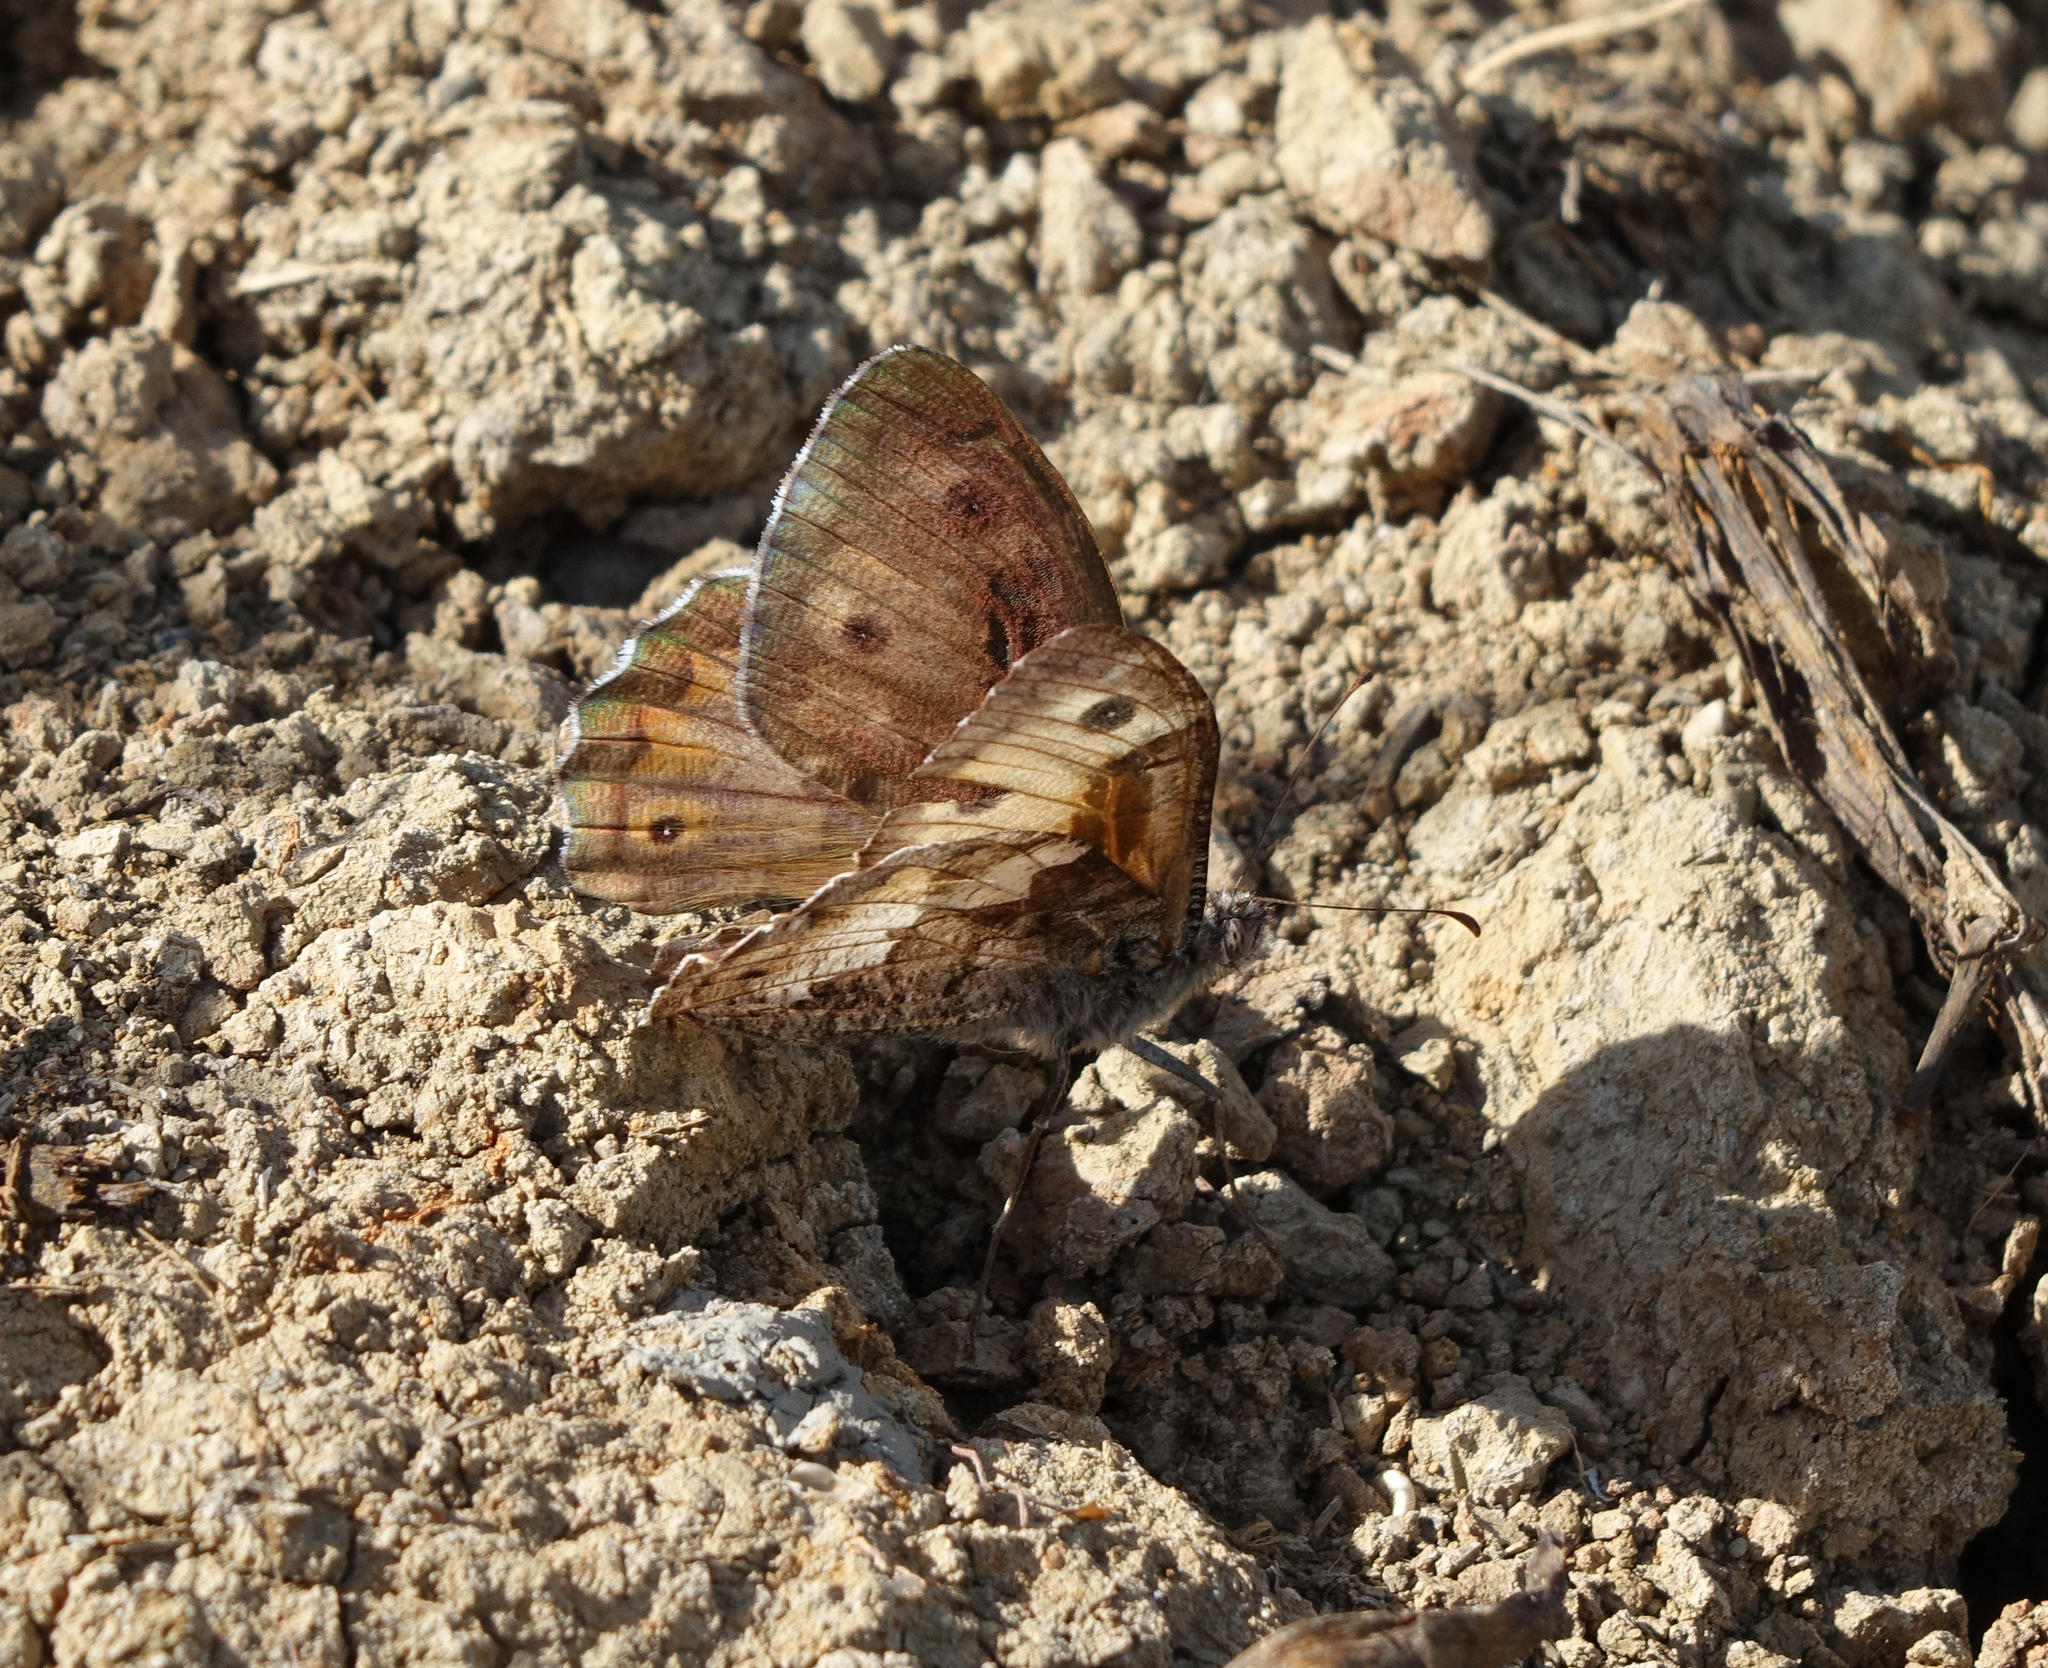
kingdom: Animalia
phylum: Arthropoda
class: Insecta
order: Lepidoptera
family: Nymphalidae
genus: Hipparchia
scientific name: Hipparchia pellucida
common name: Lesbos grayling
